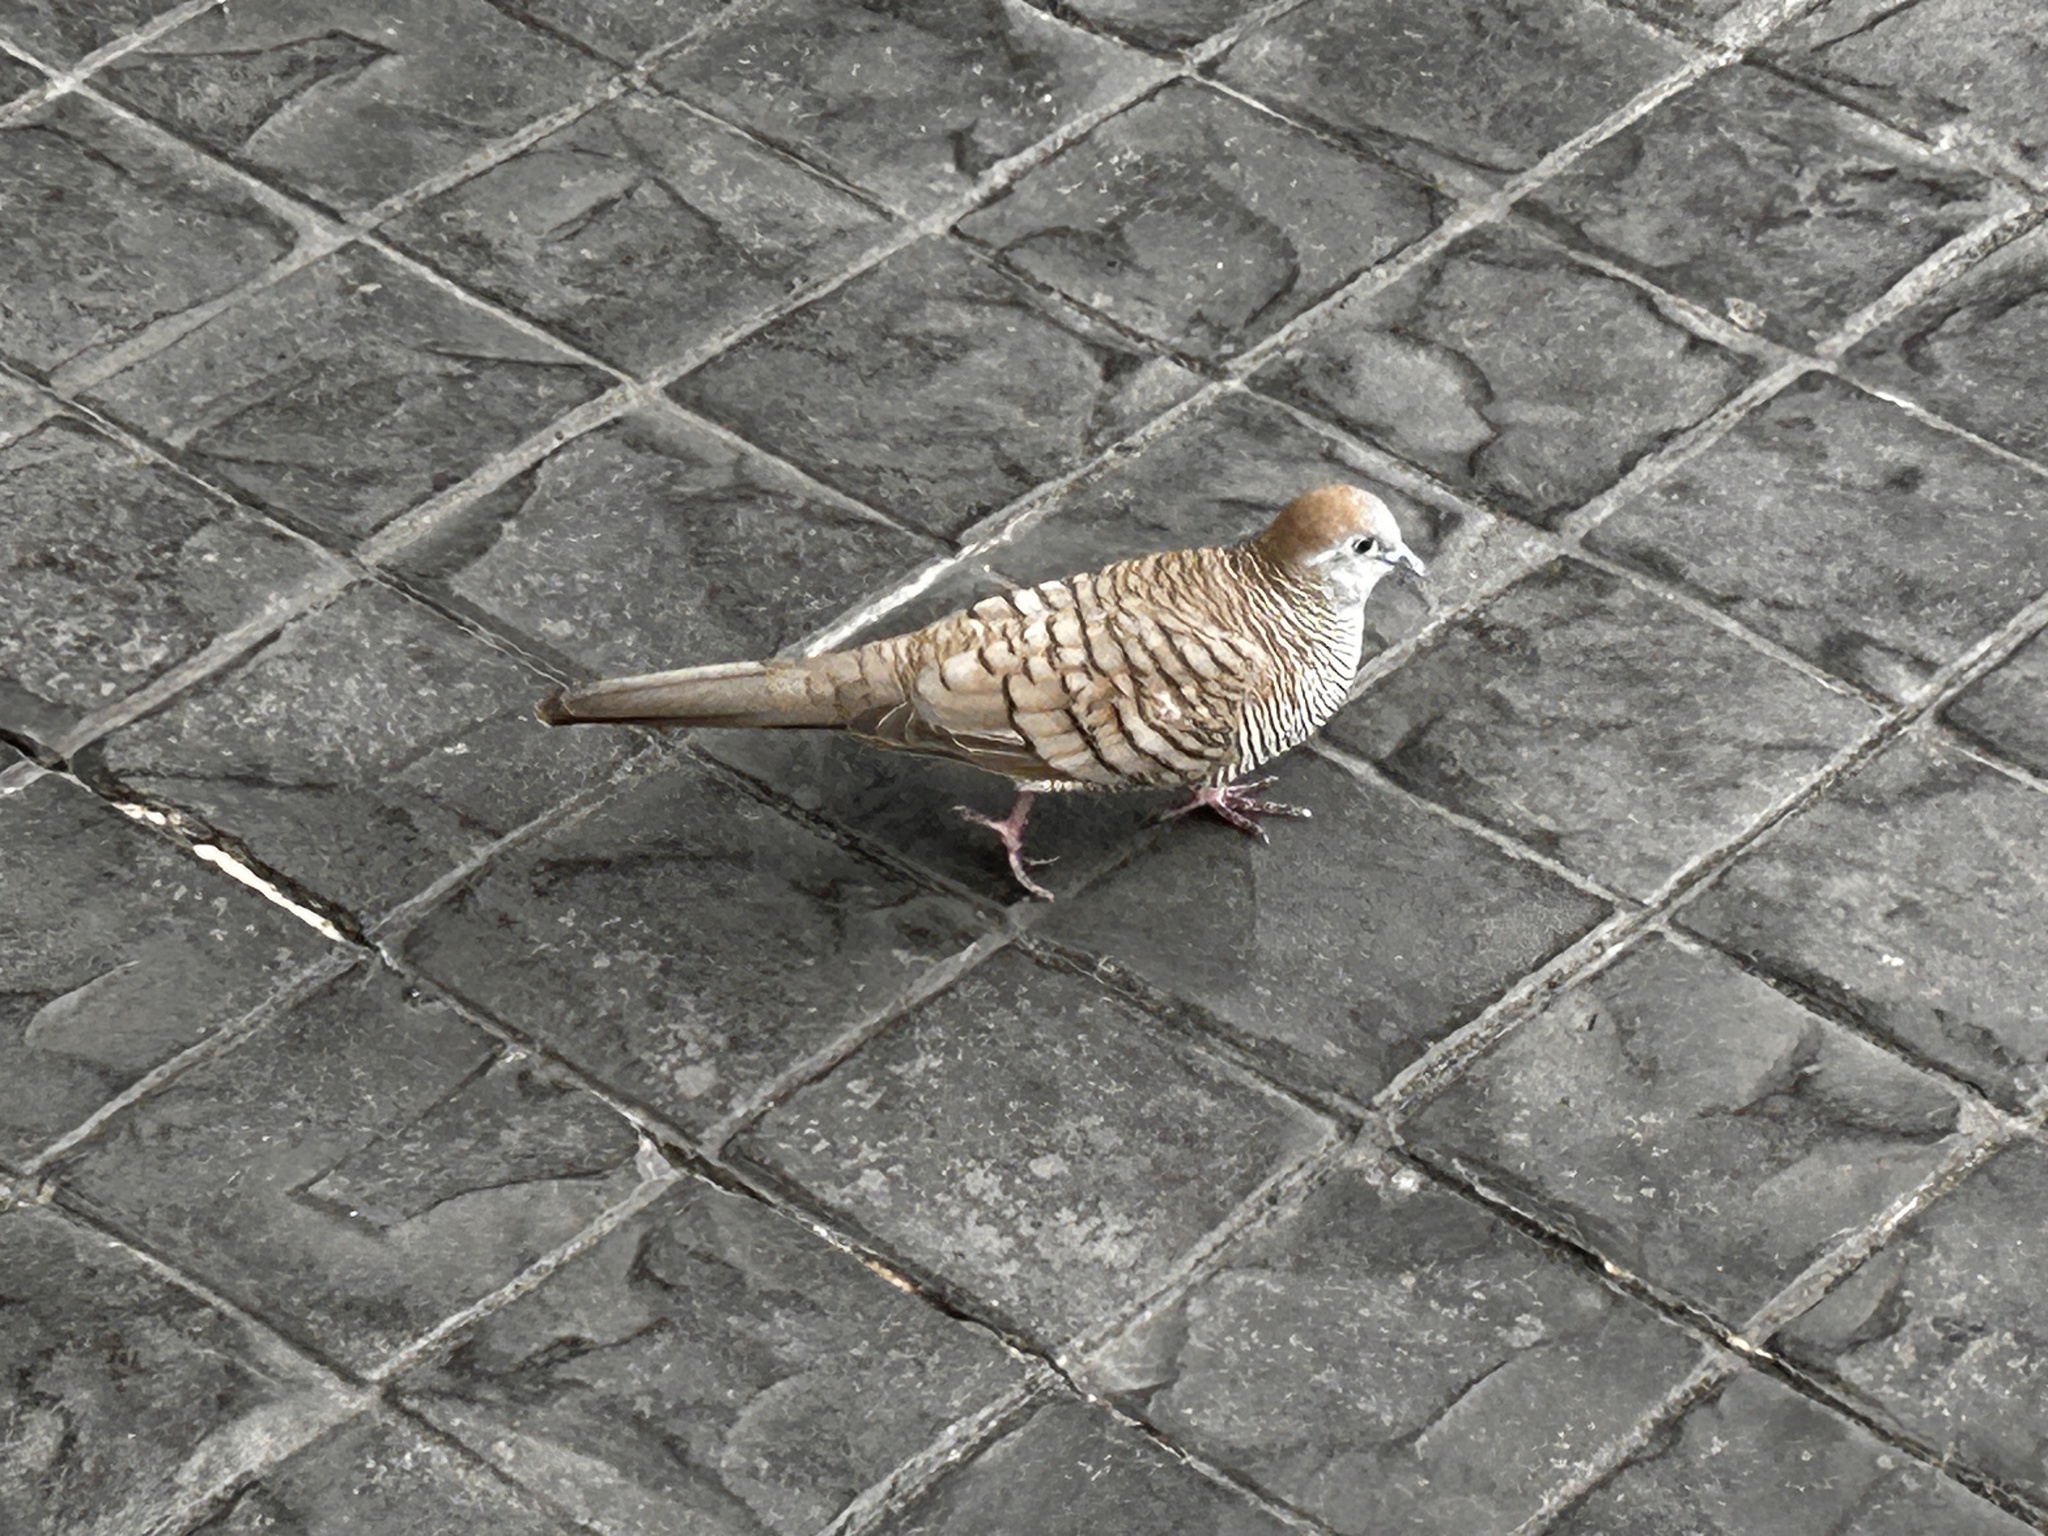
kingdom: Animalia
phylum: Chordata
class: Aves
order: Columbiformes
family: Columbidae
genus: Geopelia
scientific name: Geopelia striata
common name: Zebra dove
